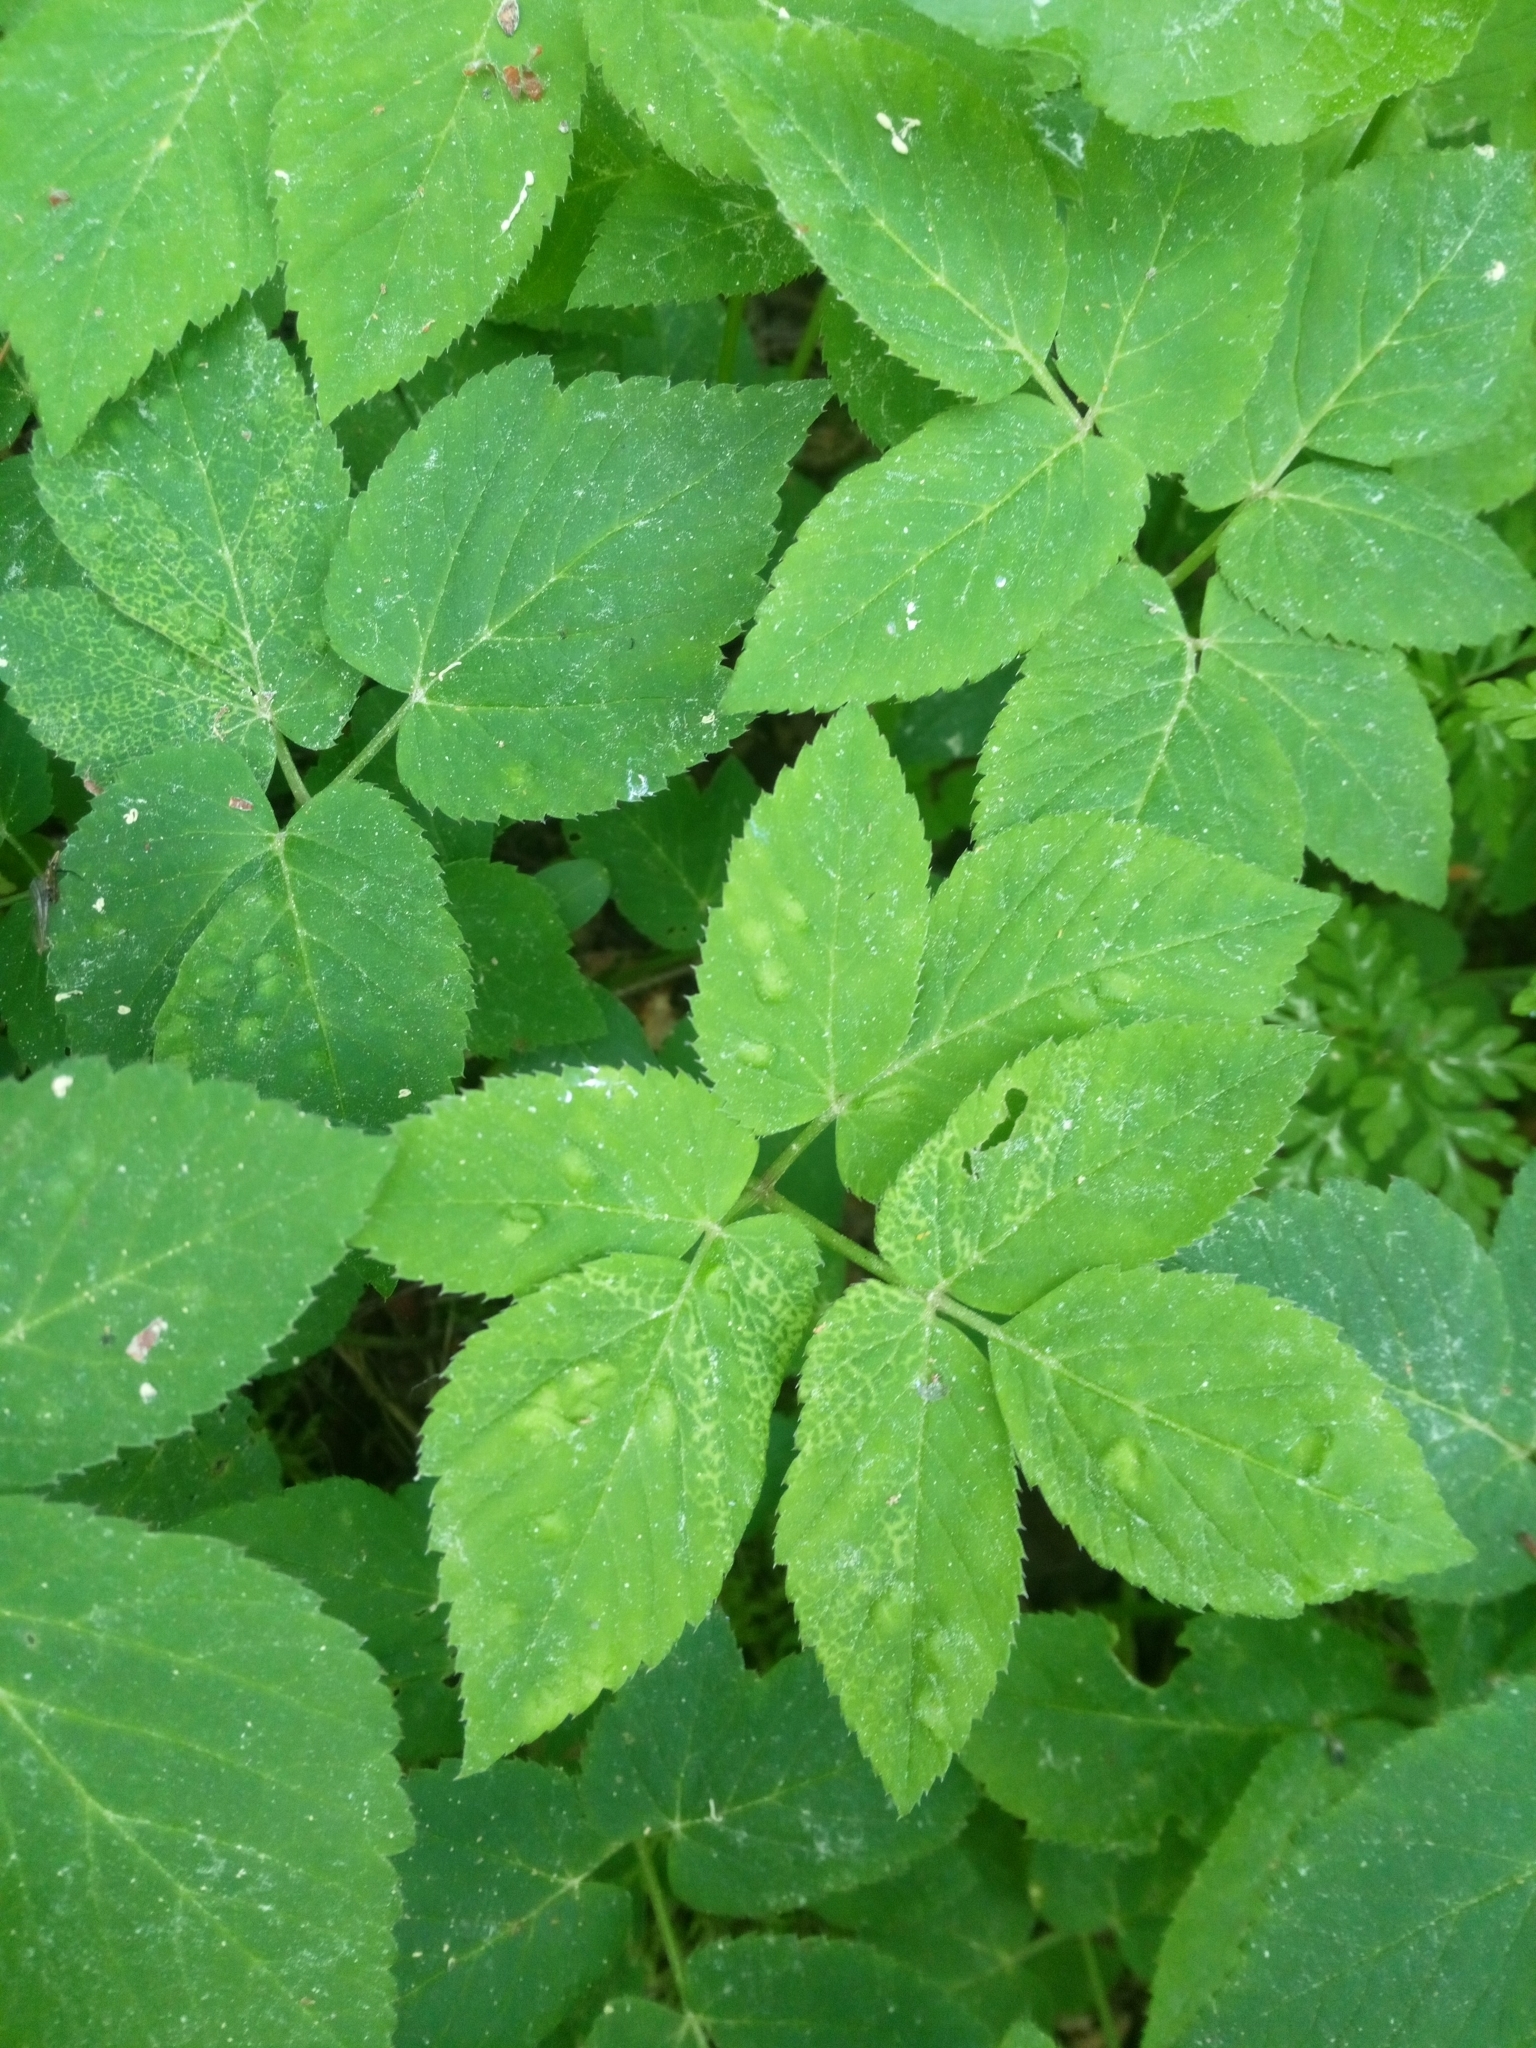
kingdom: Plantae
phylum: Tracheophyta
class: Magnoliopsida
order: Apiales
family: Apiaceae
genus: Aegopodium
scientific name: Aegopodium podagraria
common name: Ground-elder
